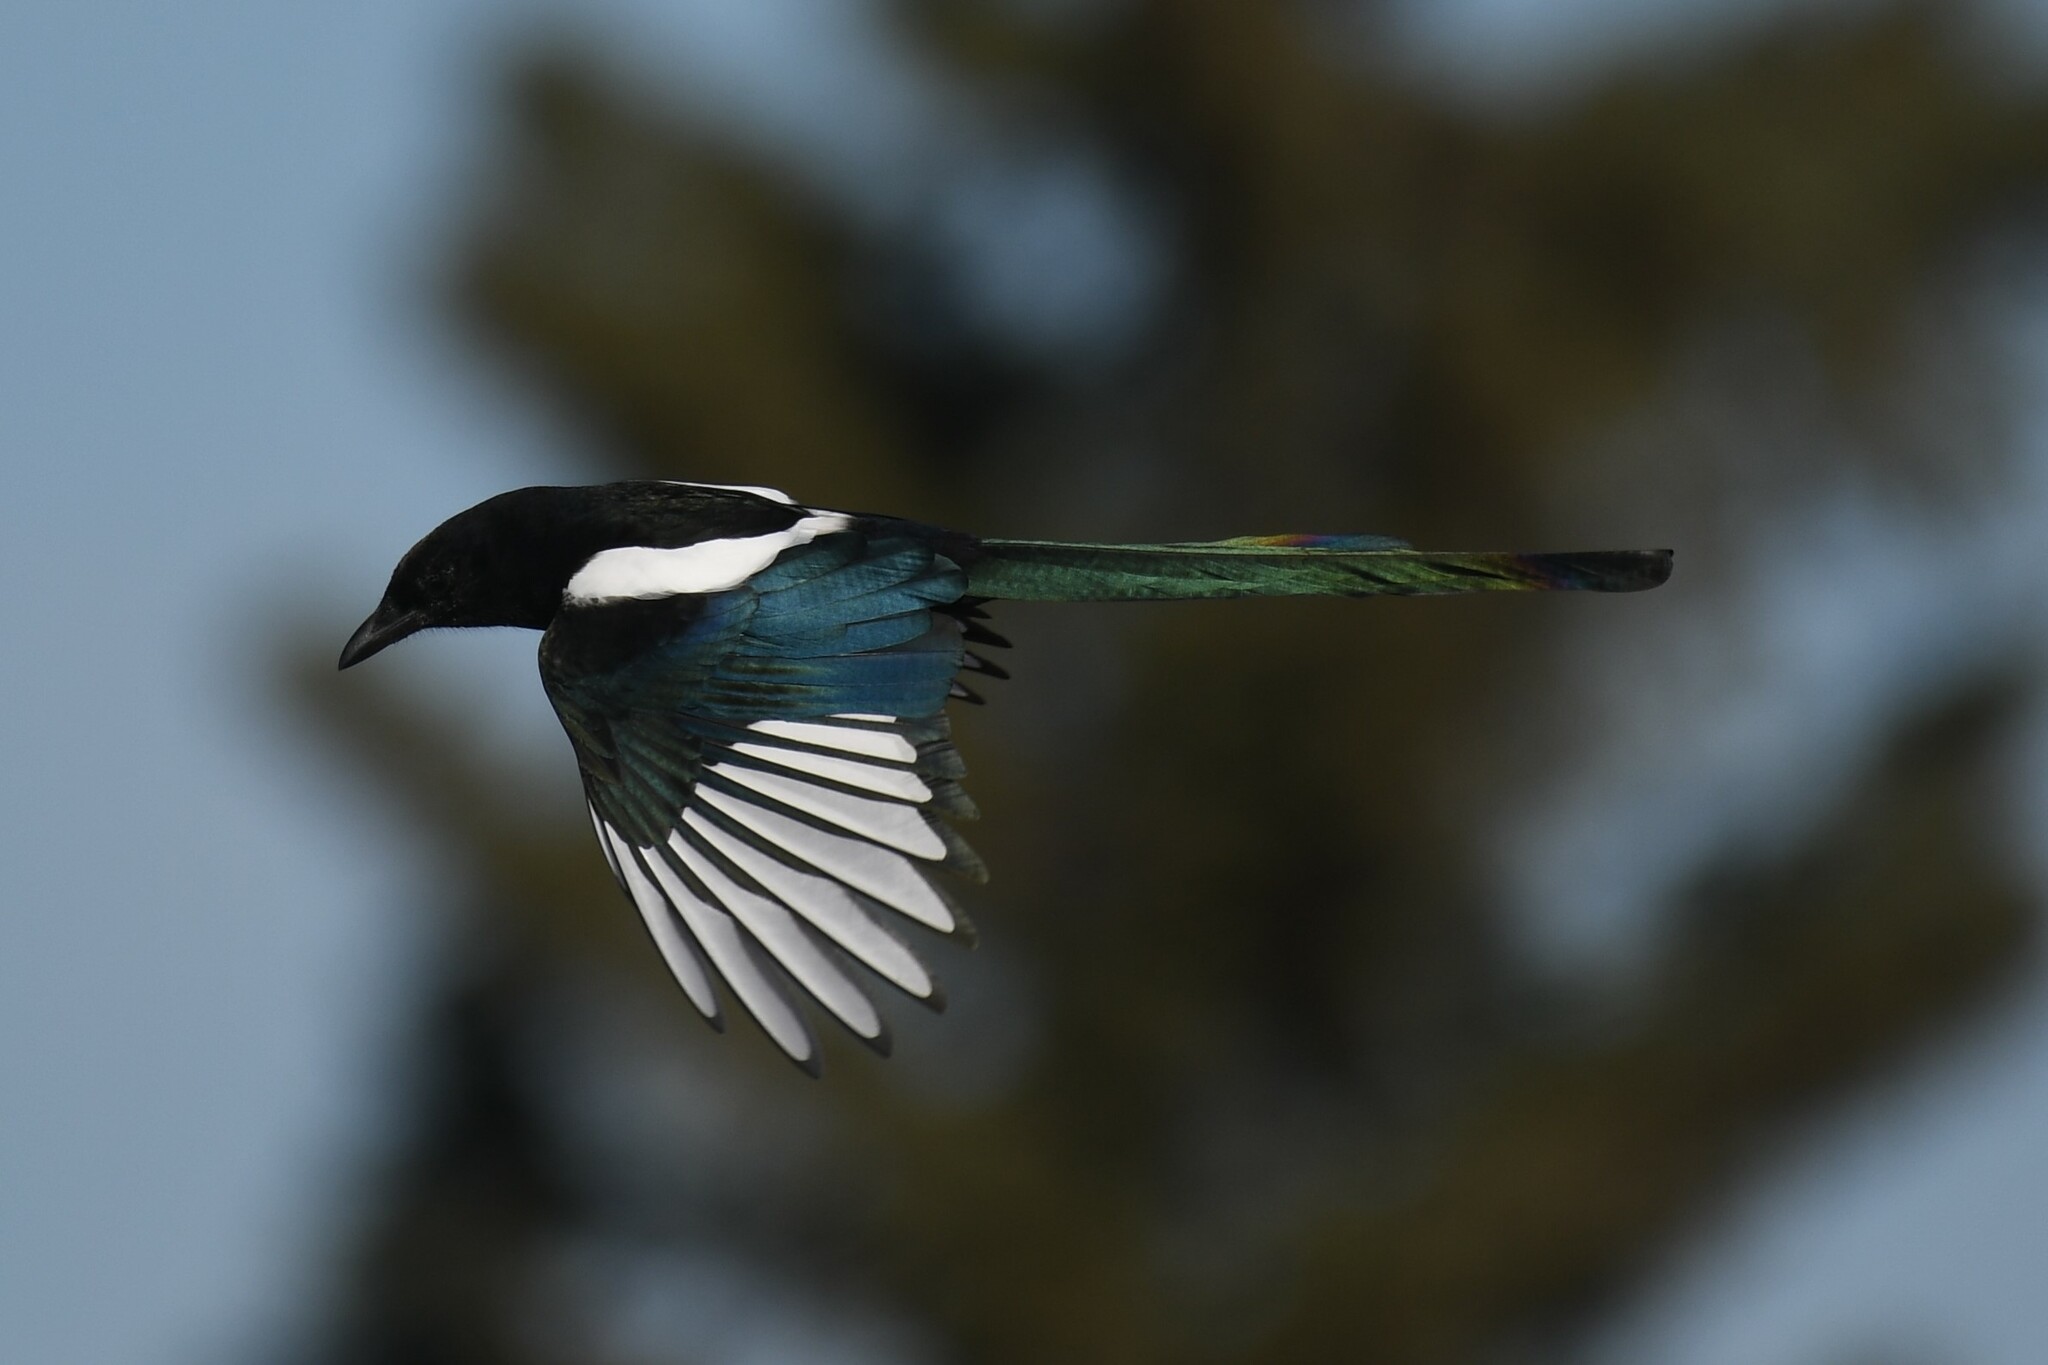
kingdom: Animalia
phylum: Chordata
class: Aves
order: Passeriformes
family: Corvidae
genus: Pica
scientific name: Pica hudsonia
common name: Black-billed magpie
